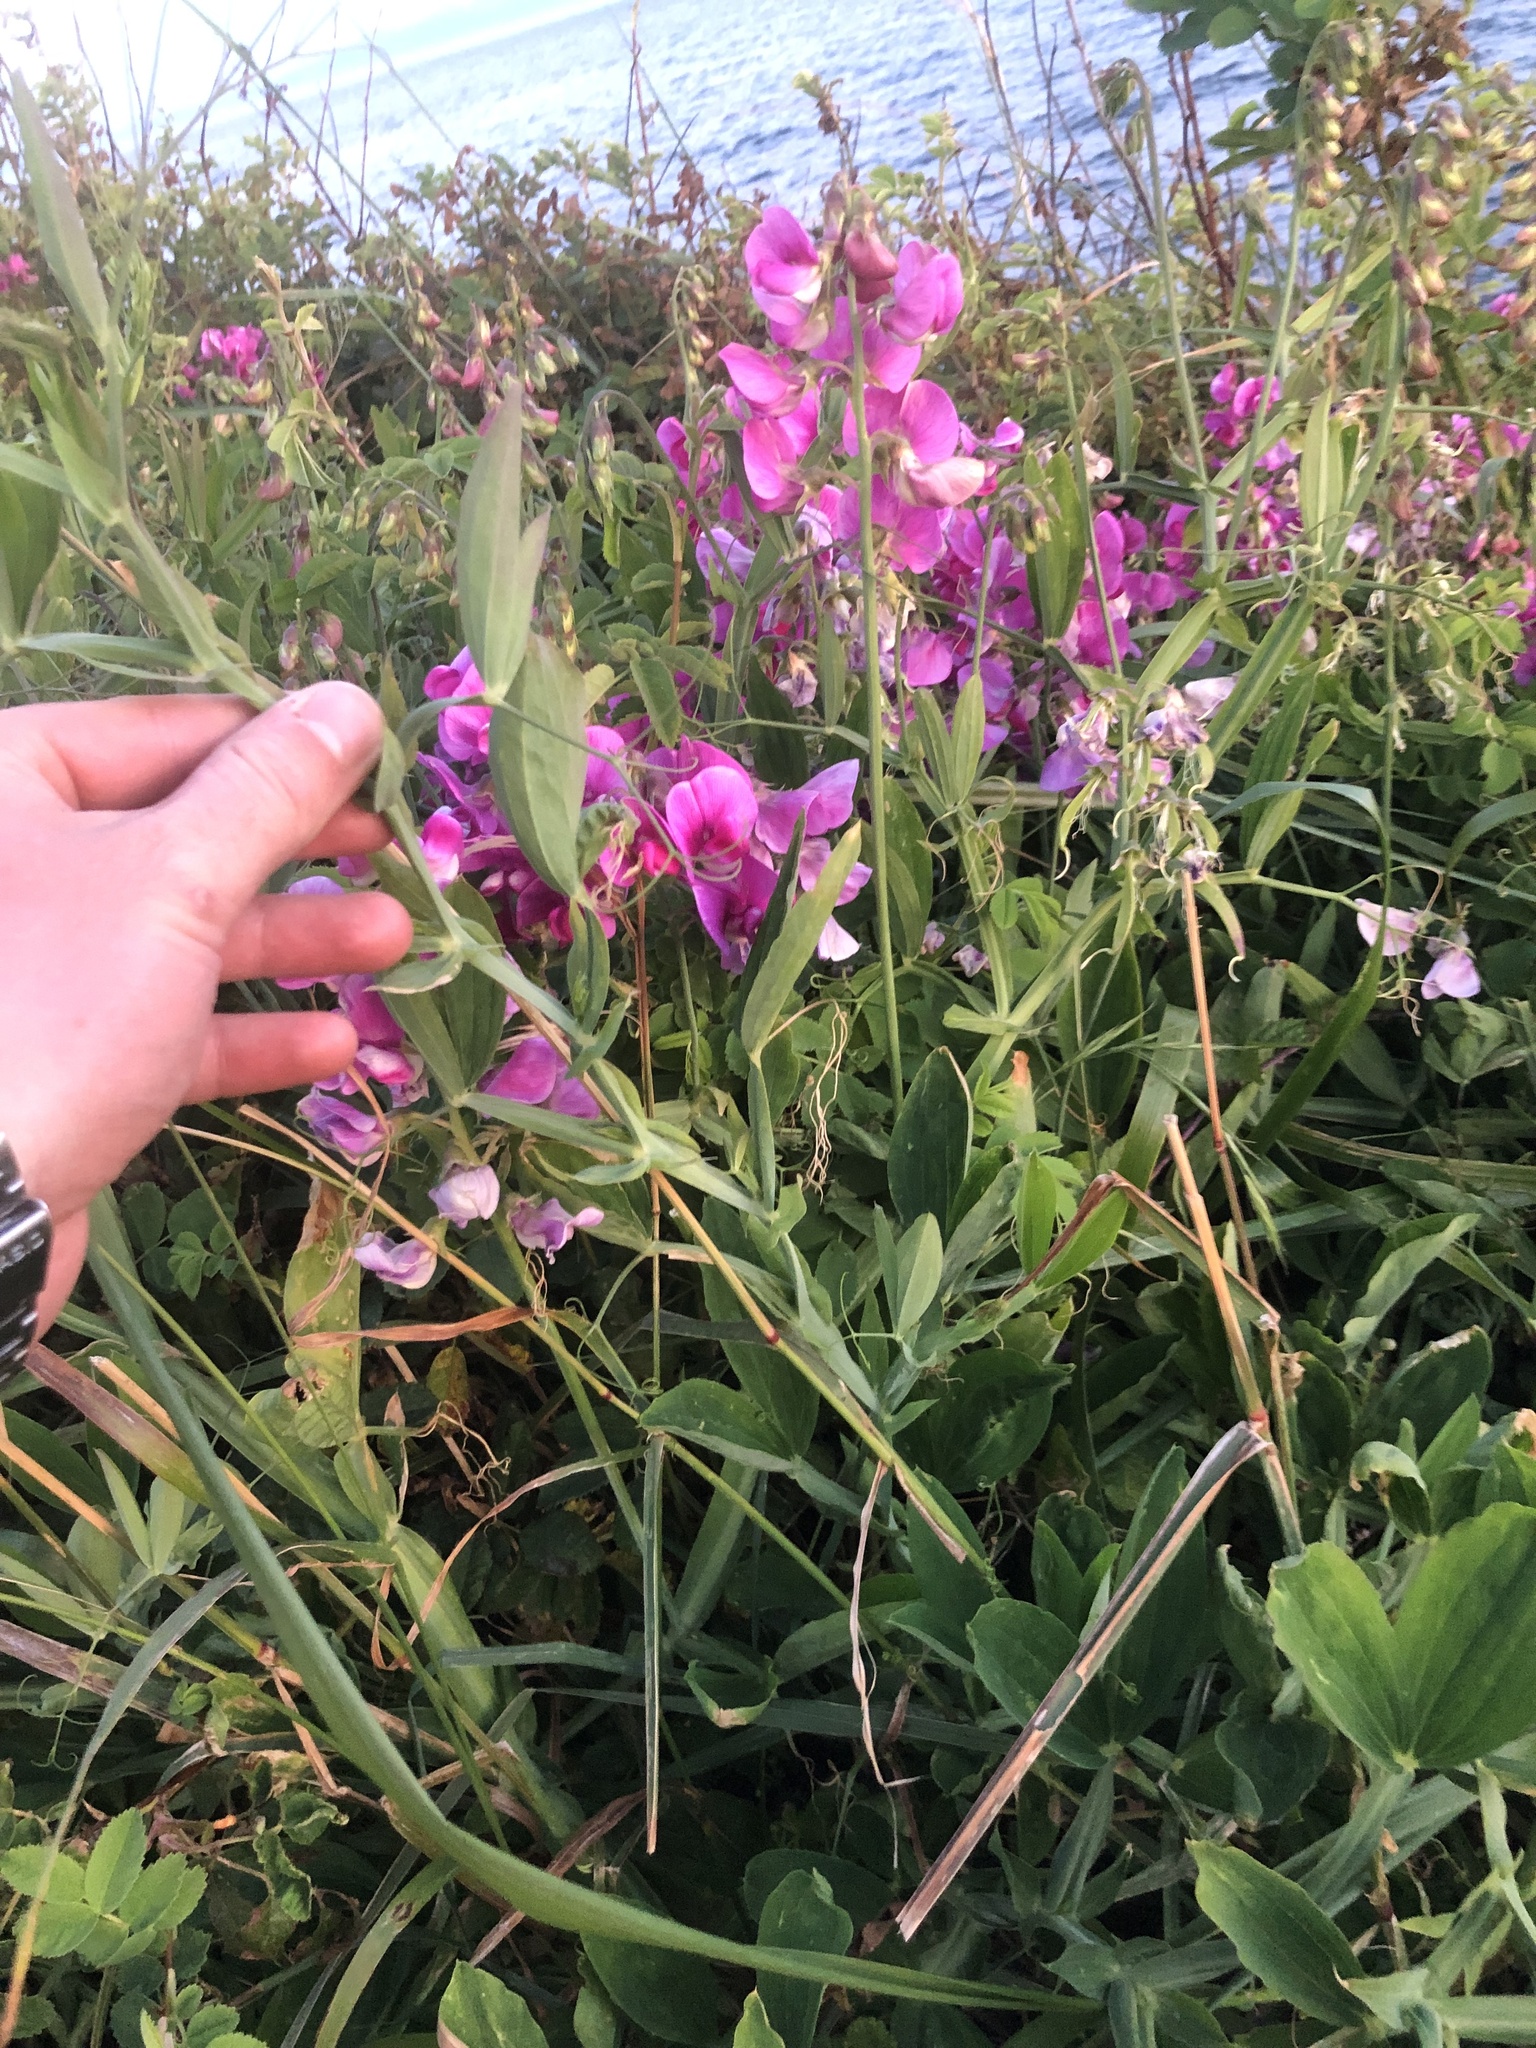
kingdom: Plantae
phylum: Tracheophyta
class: Magnoliopsida
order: Fabales
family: Fabaceae
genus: Lathyrus
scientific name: Lathyrus latifolius
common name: Perennial pea
